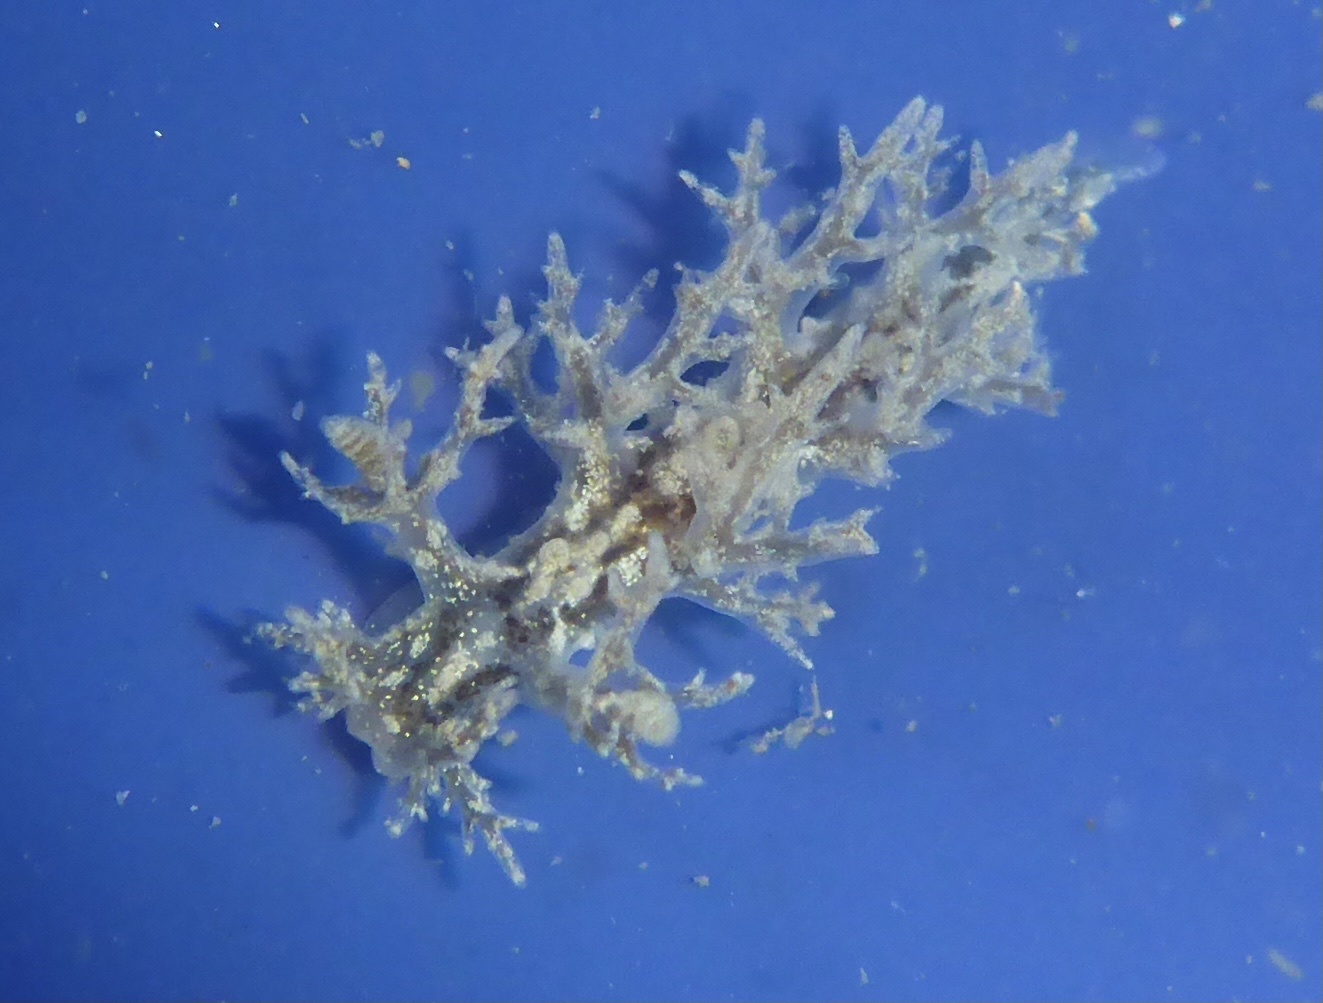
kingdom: Animalia
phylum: Mollusca
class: Gastropoda
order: Nudibranchia
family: Dendronotidae
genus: Dendronotus
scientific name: Dendronotus venustus
